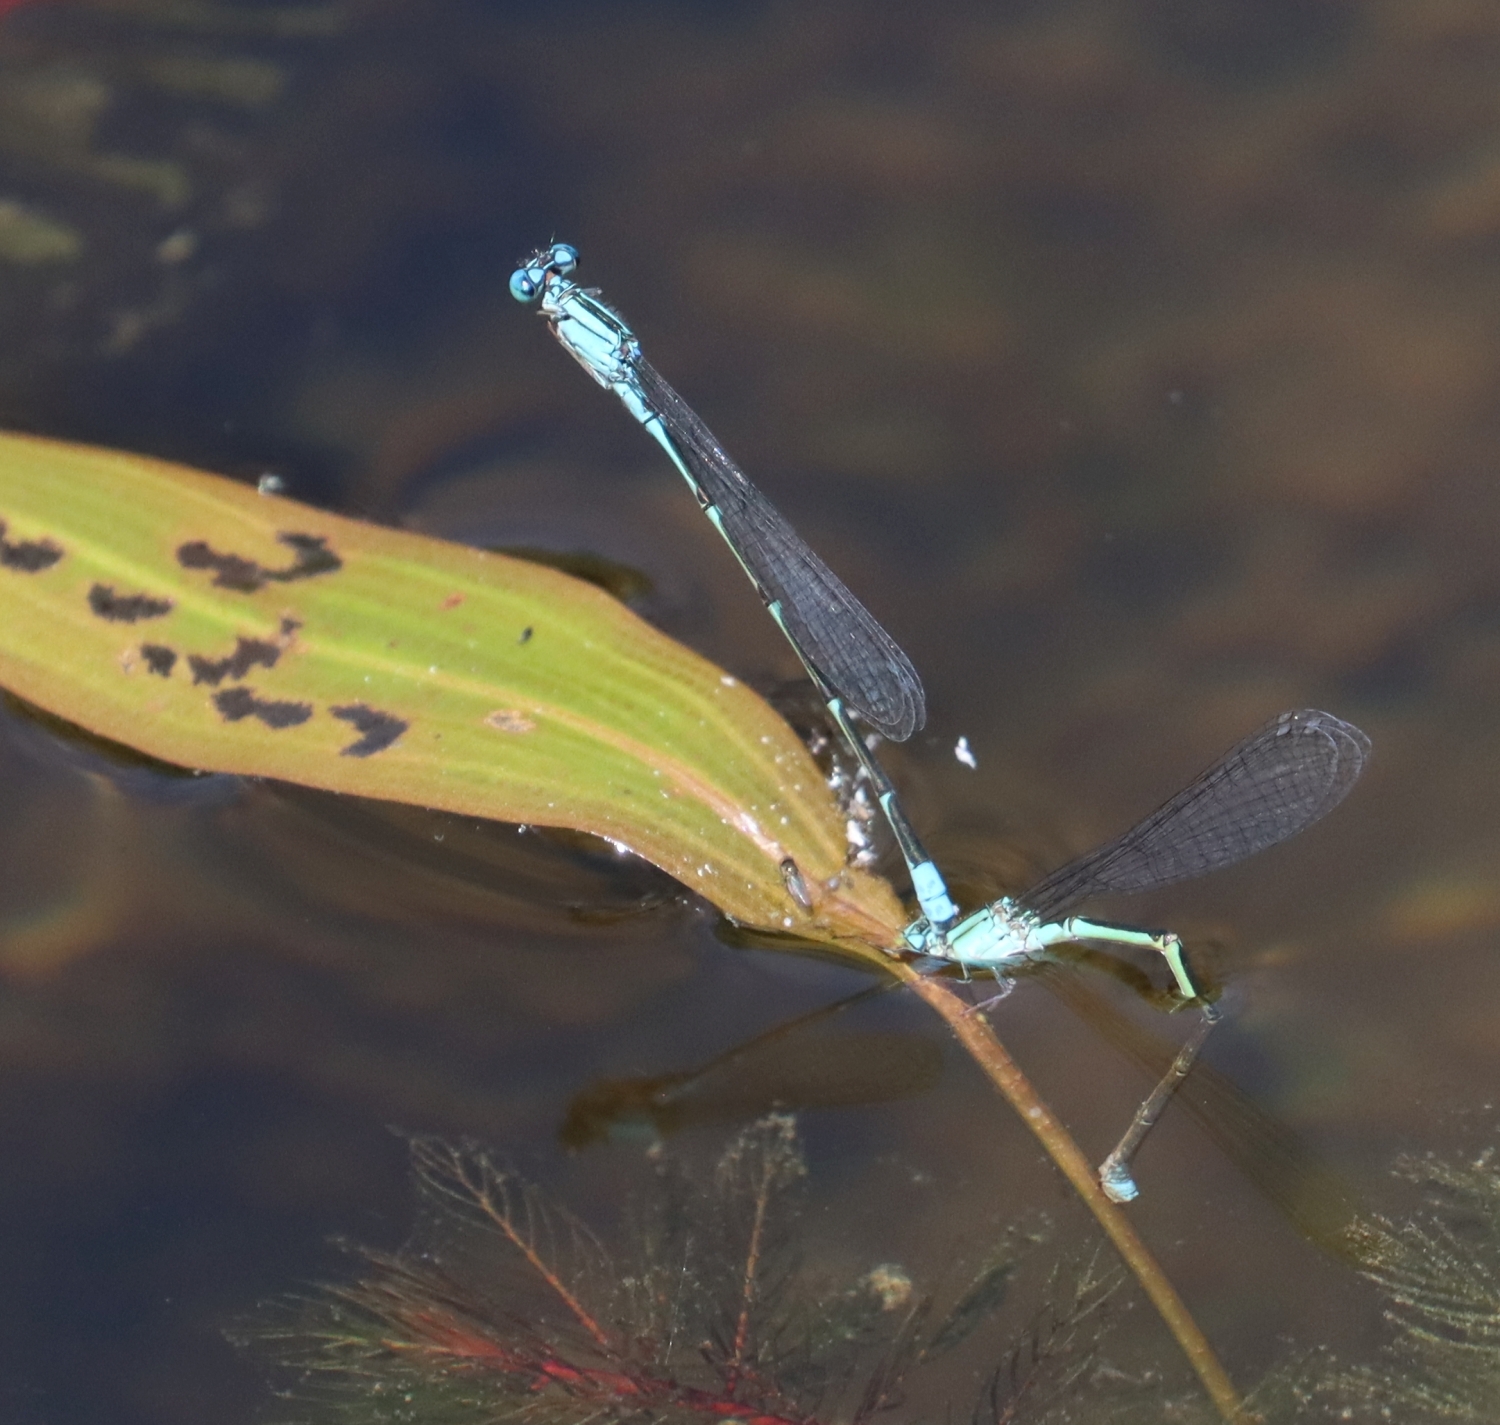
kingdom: Animalia
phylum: Arthropoda
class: Insecta
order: Odonata
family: Coenagrionidae
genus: Enallagma
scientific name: Enallagma traviatum
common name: Slender bluet
